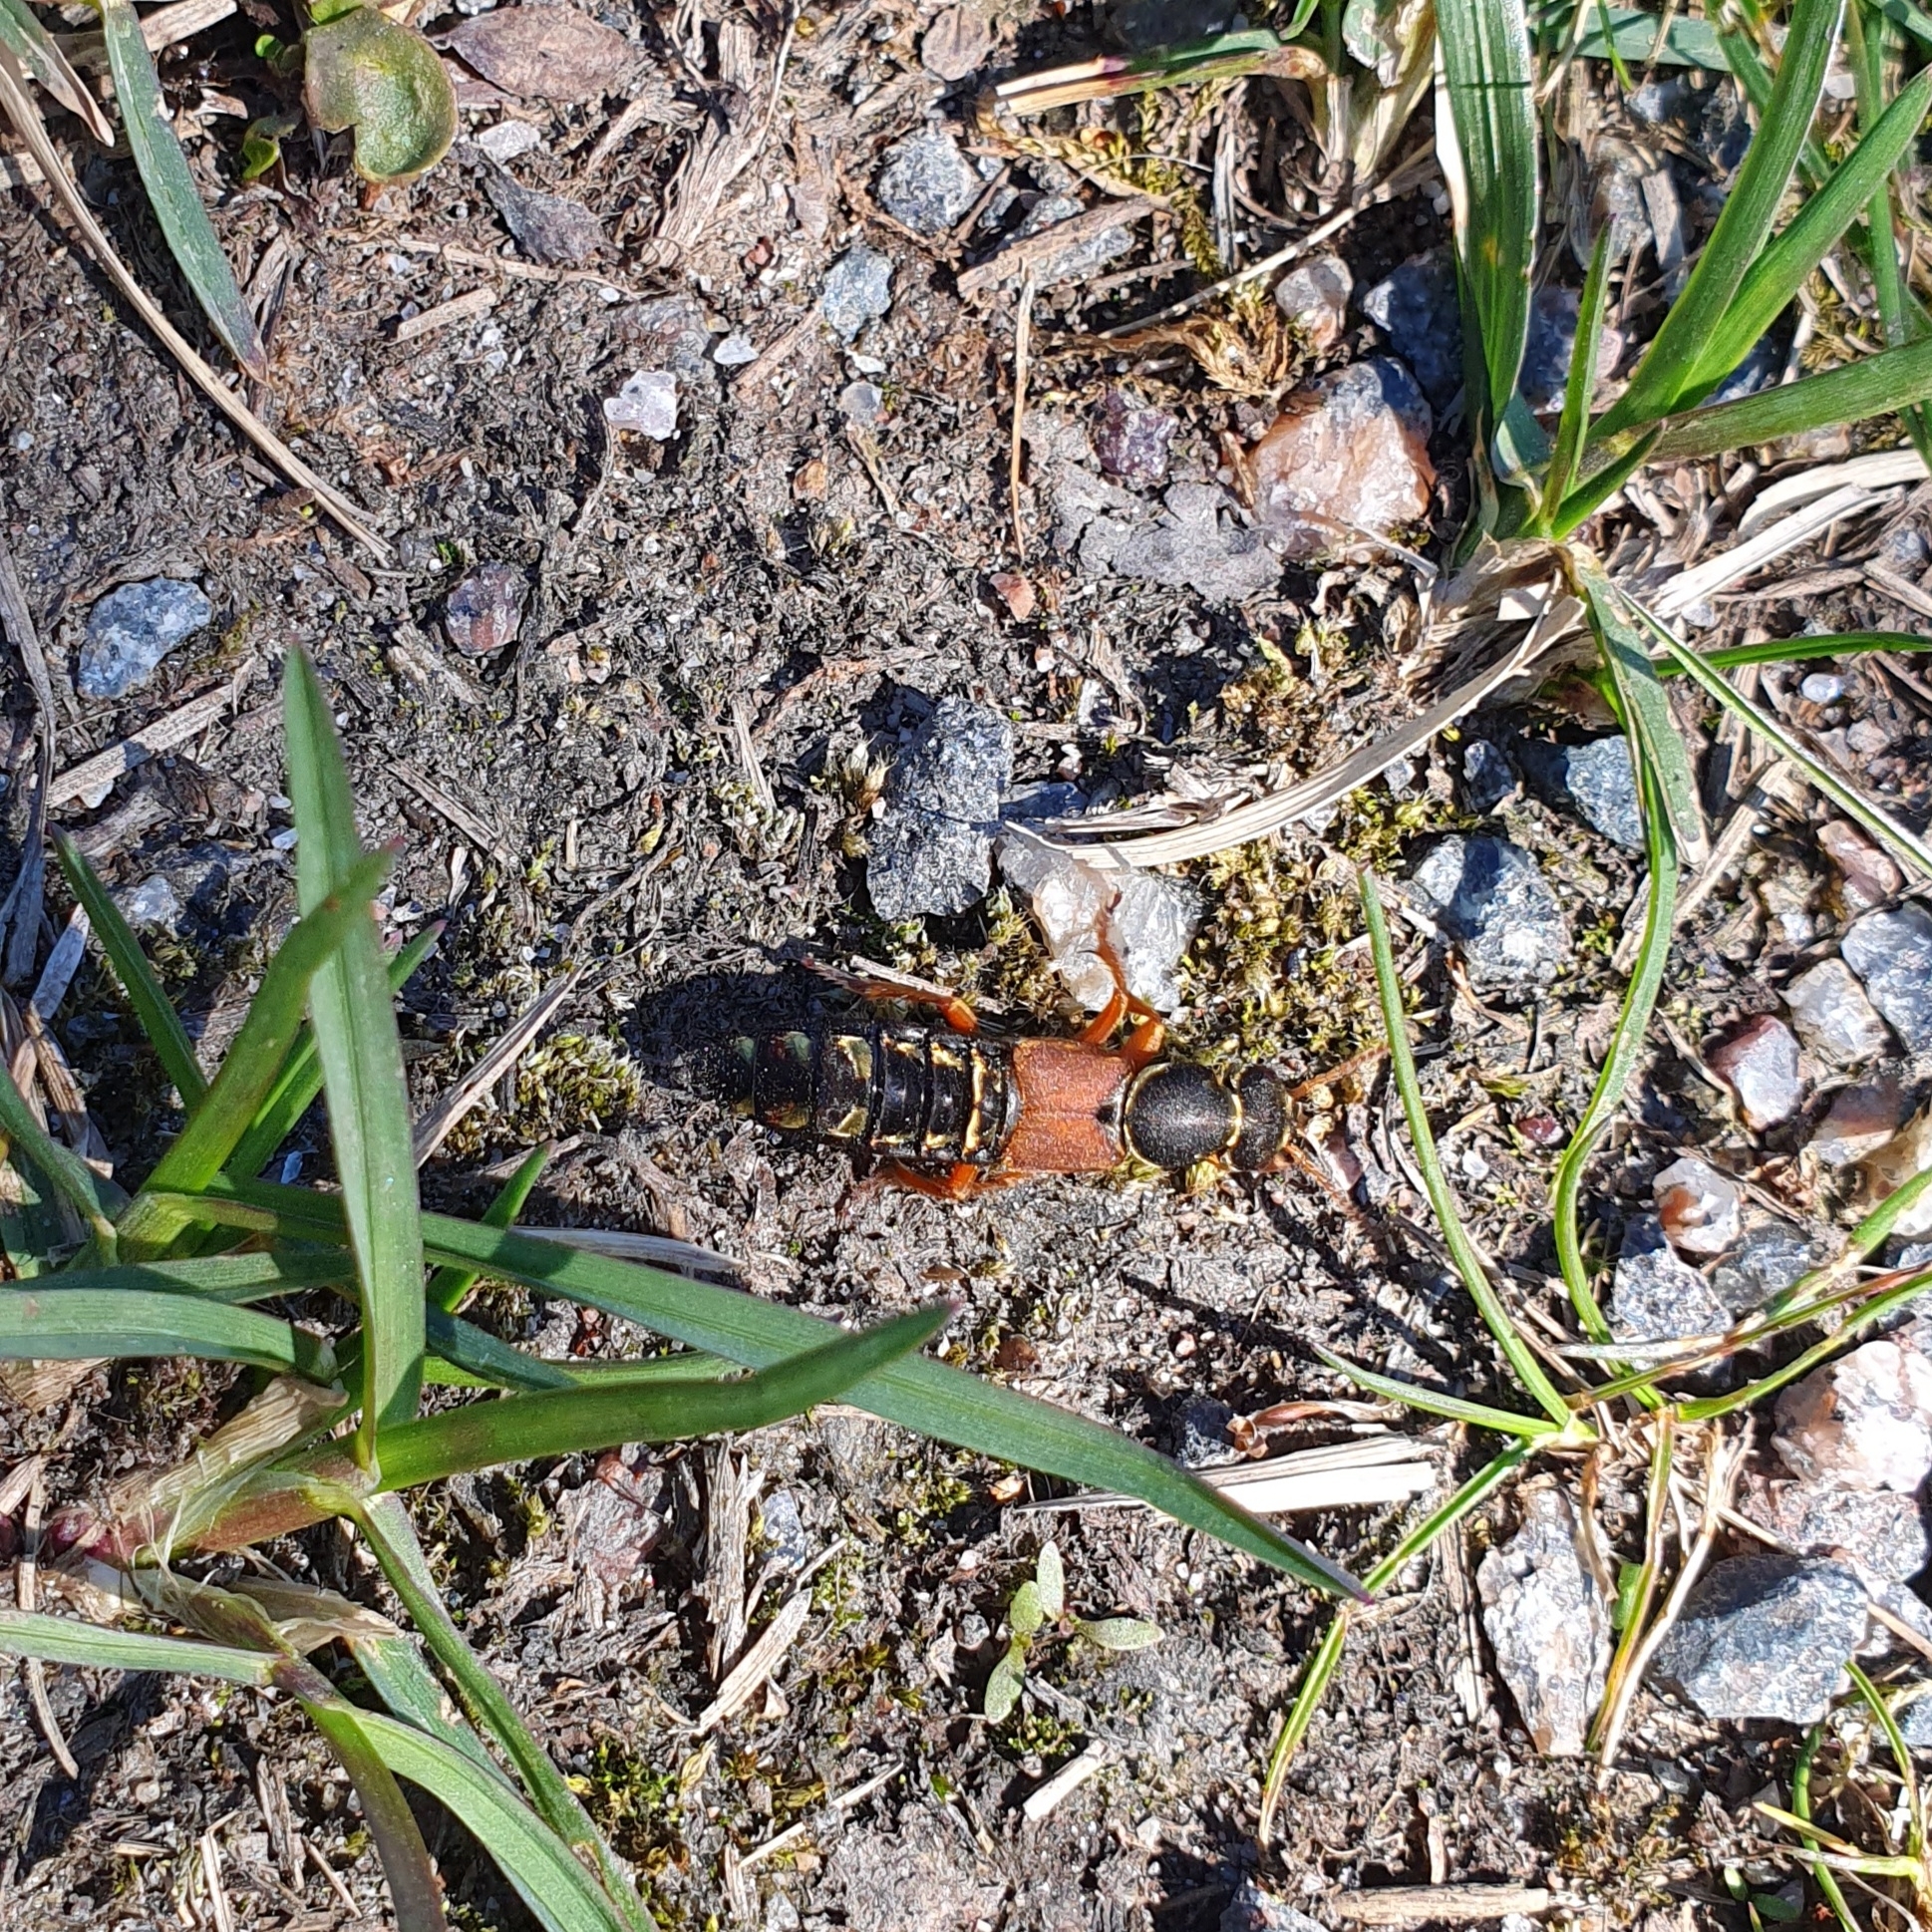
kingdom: Animalia
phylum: Arthropoda
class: Insecta
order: Coleoptera
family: Staphylinidae
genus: Staphylinus
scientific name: Staphylinus caesareus
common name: Staph beetle
